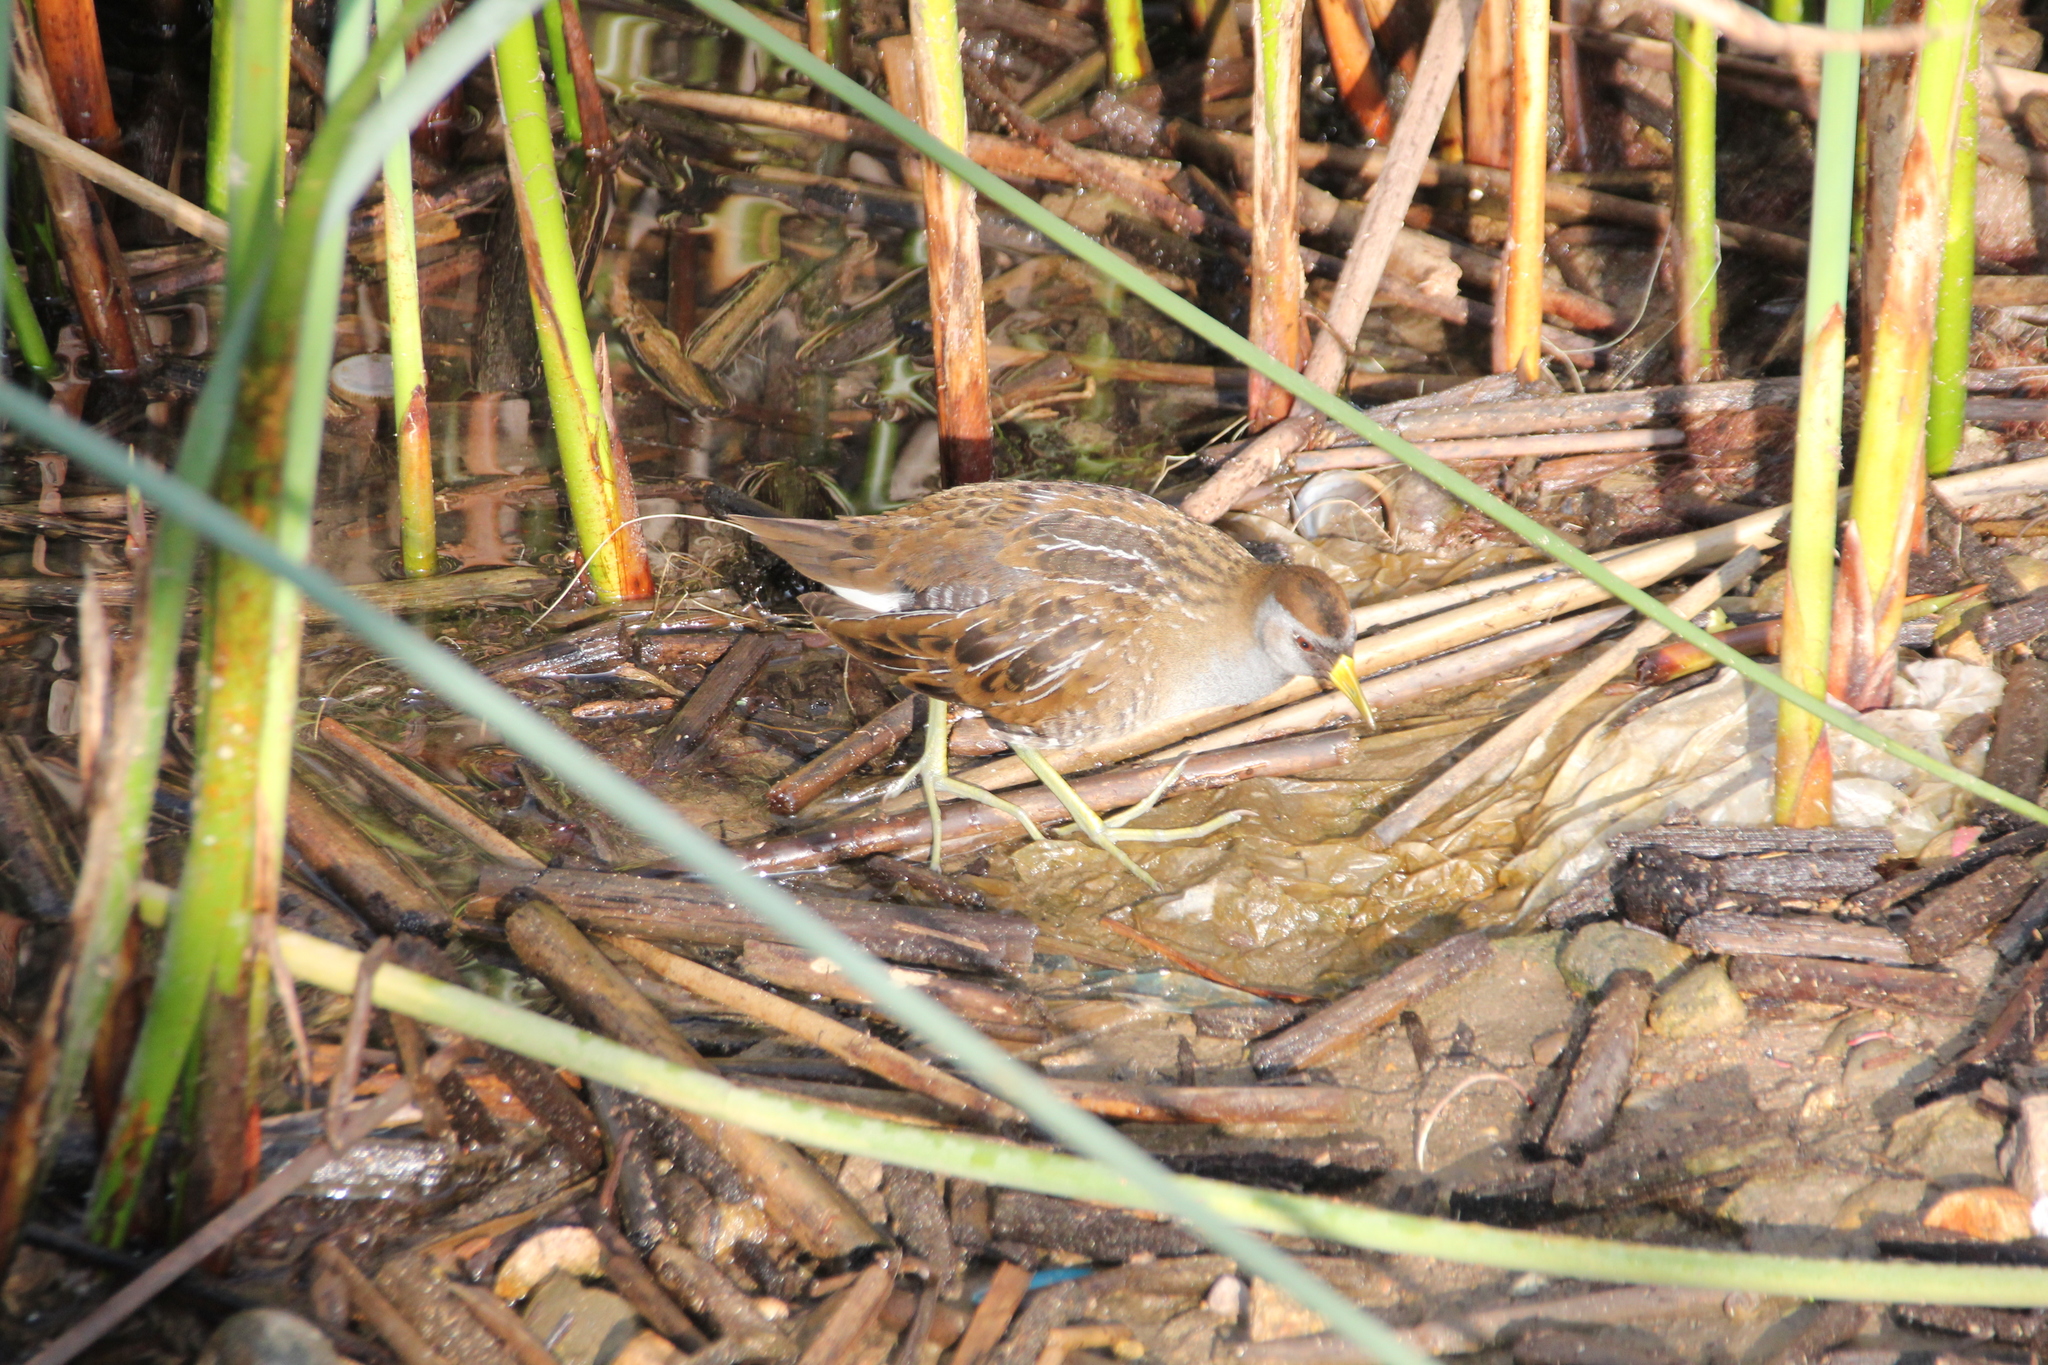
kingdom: Animalia
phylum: Chordata
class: Aves
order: Gruiformes
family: Rallidae
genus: Porzana
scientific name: Porzana carolina
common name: Sora
